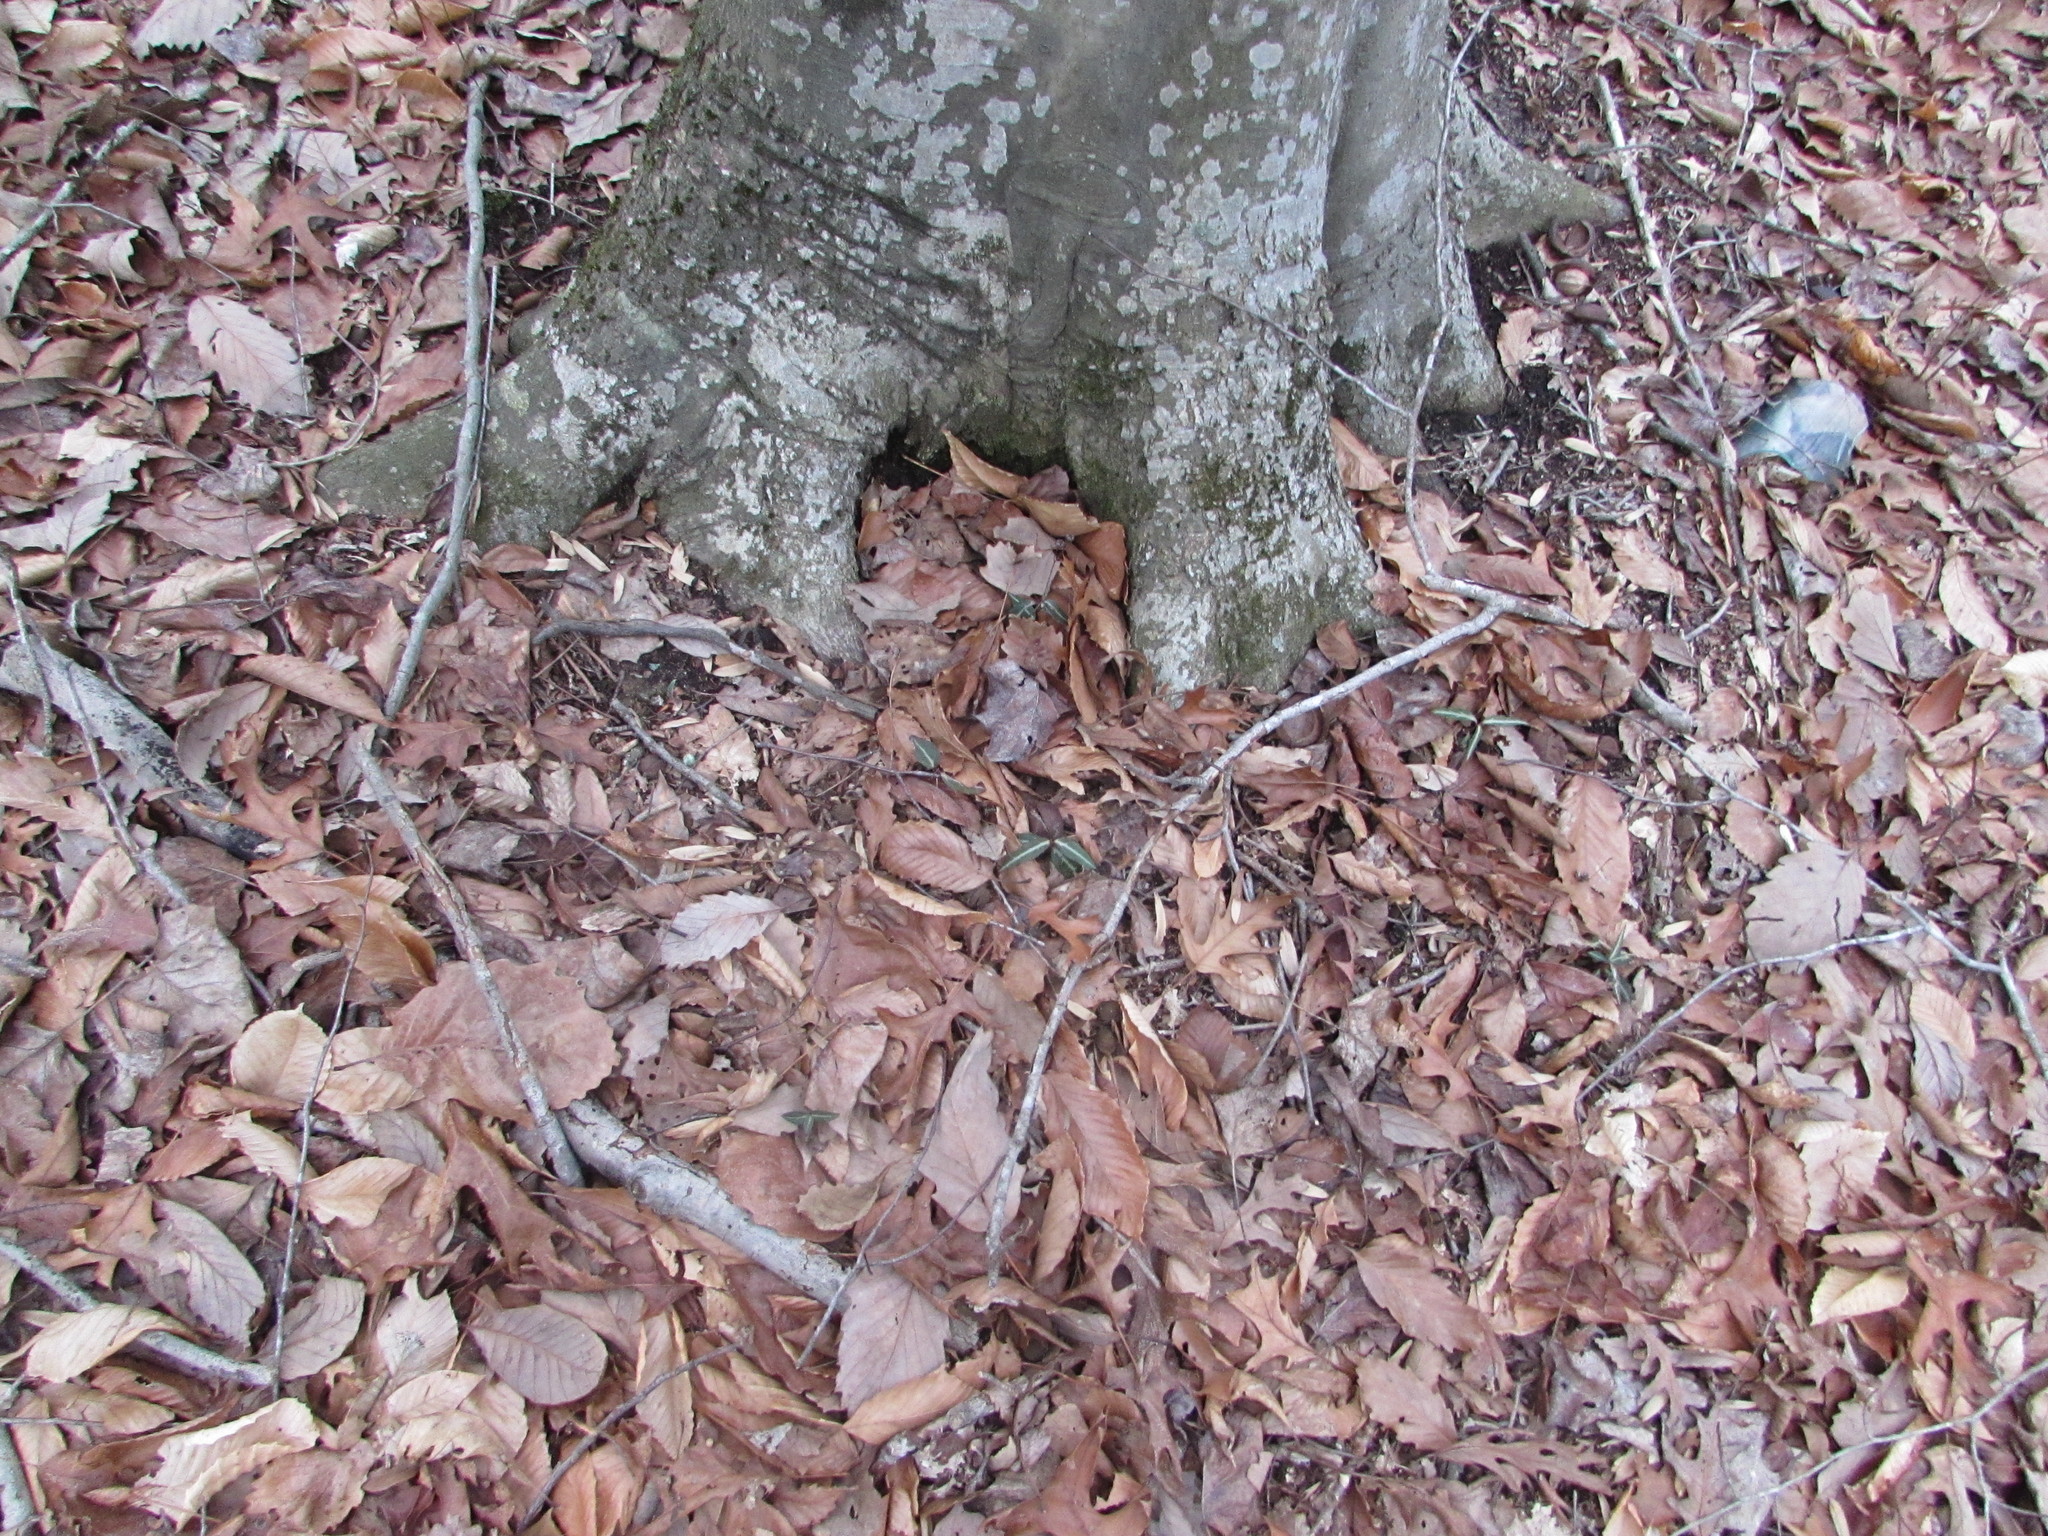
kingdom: Plantae
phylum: Tracheophyta
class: Magnoliopsida
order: Ericales
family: Ericaceae
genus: Chimaphila
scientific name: Chimaphila maculata
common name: Spotted pipsissewa
